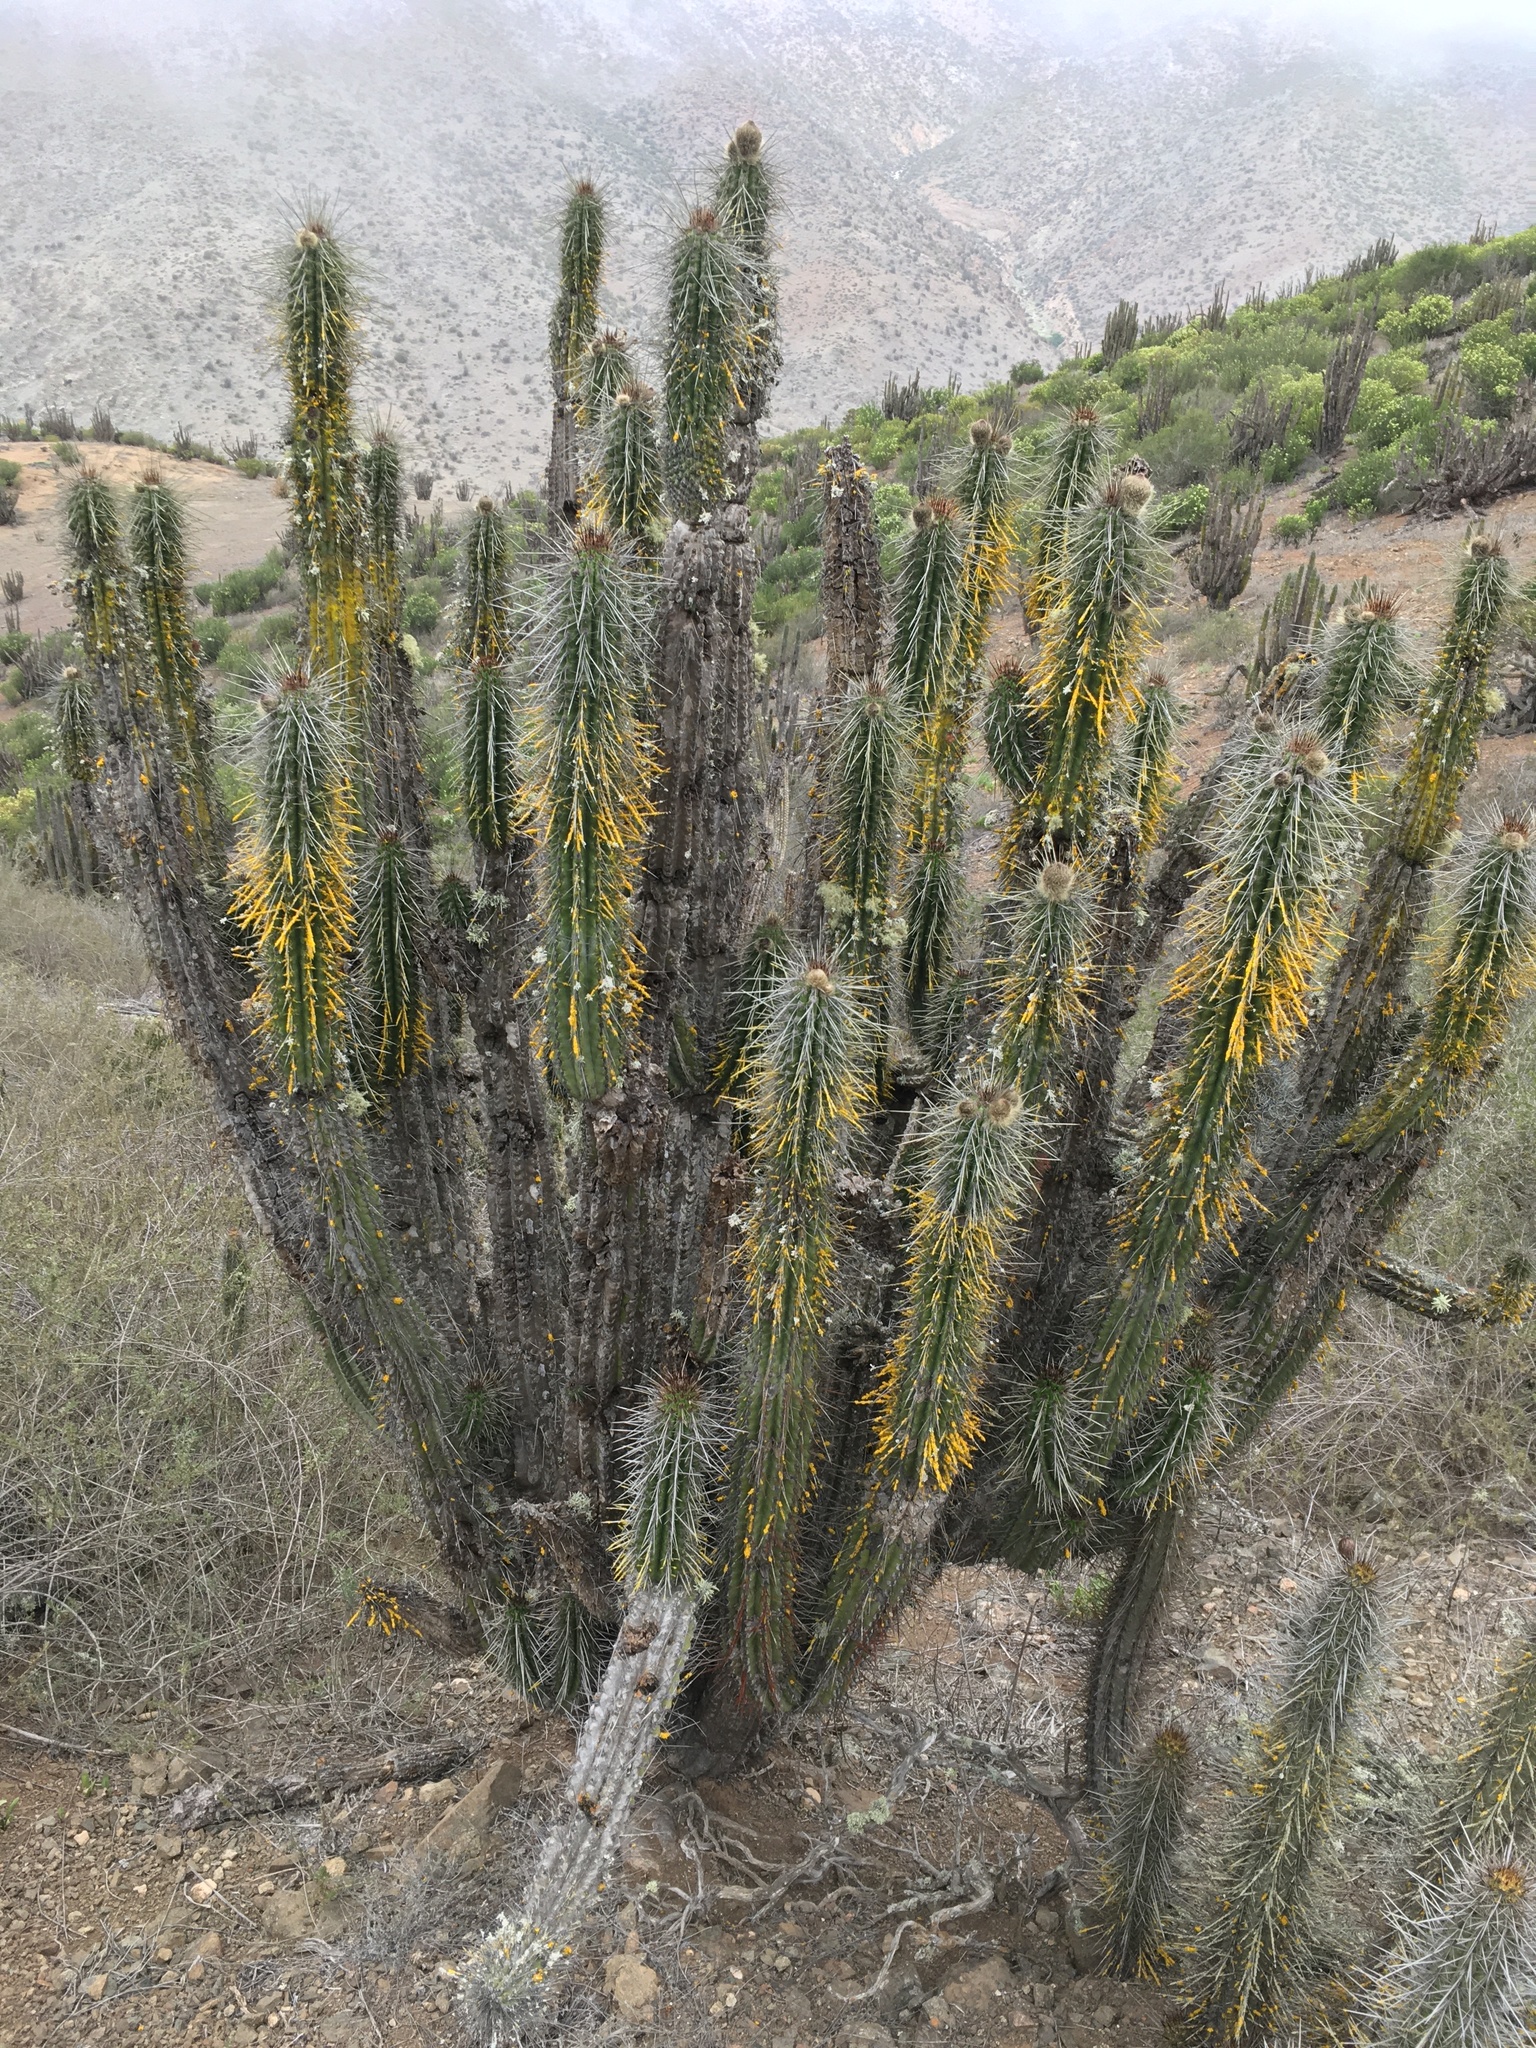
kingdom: Plantae
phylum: Tracheophyta
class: Magnoliopsida
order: Caryophyllales
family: Cactaceae
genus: Eulychnia
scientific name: Eulychnia iquiquensis
